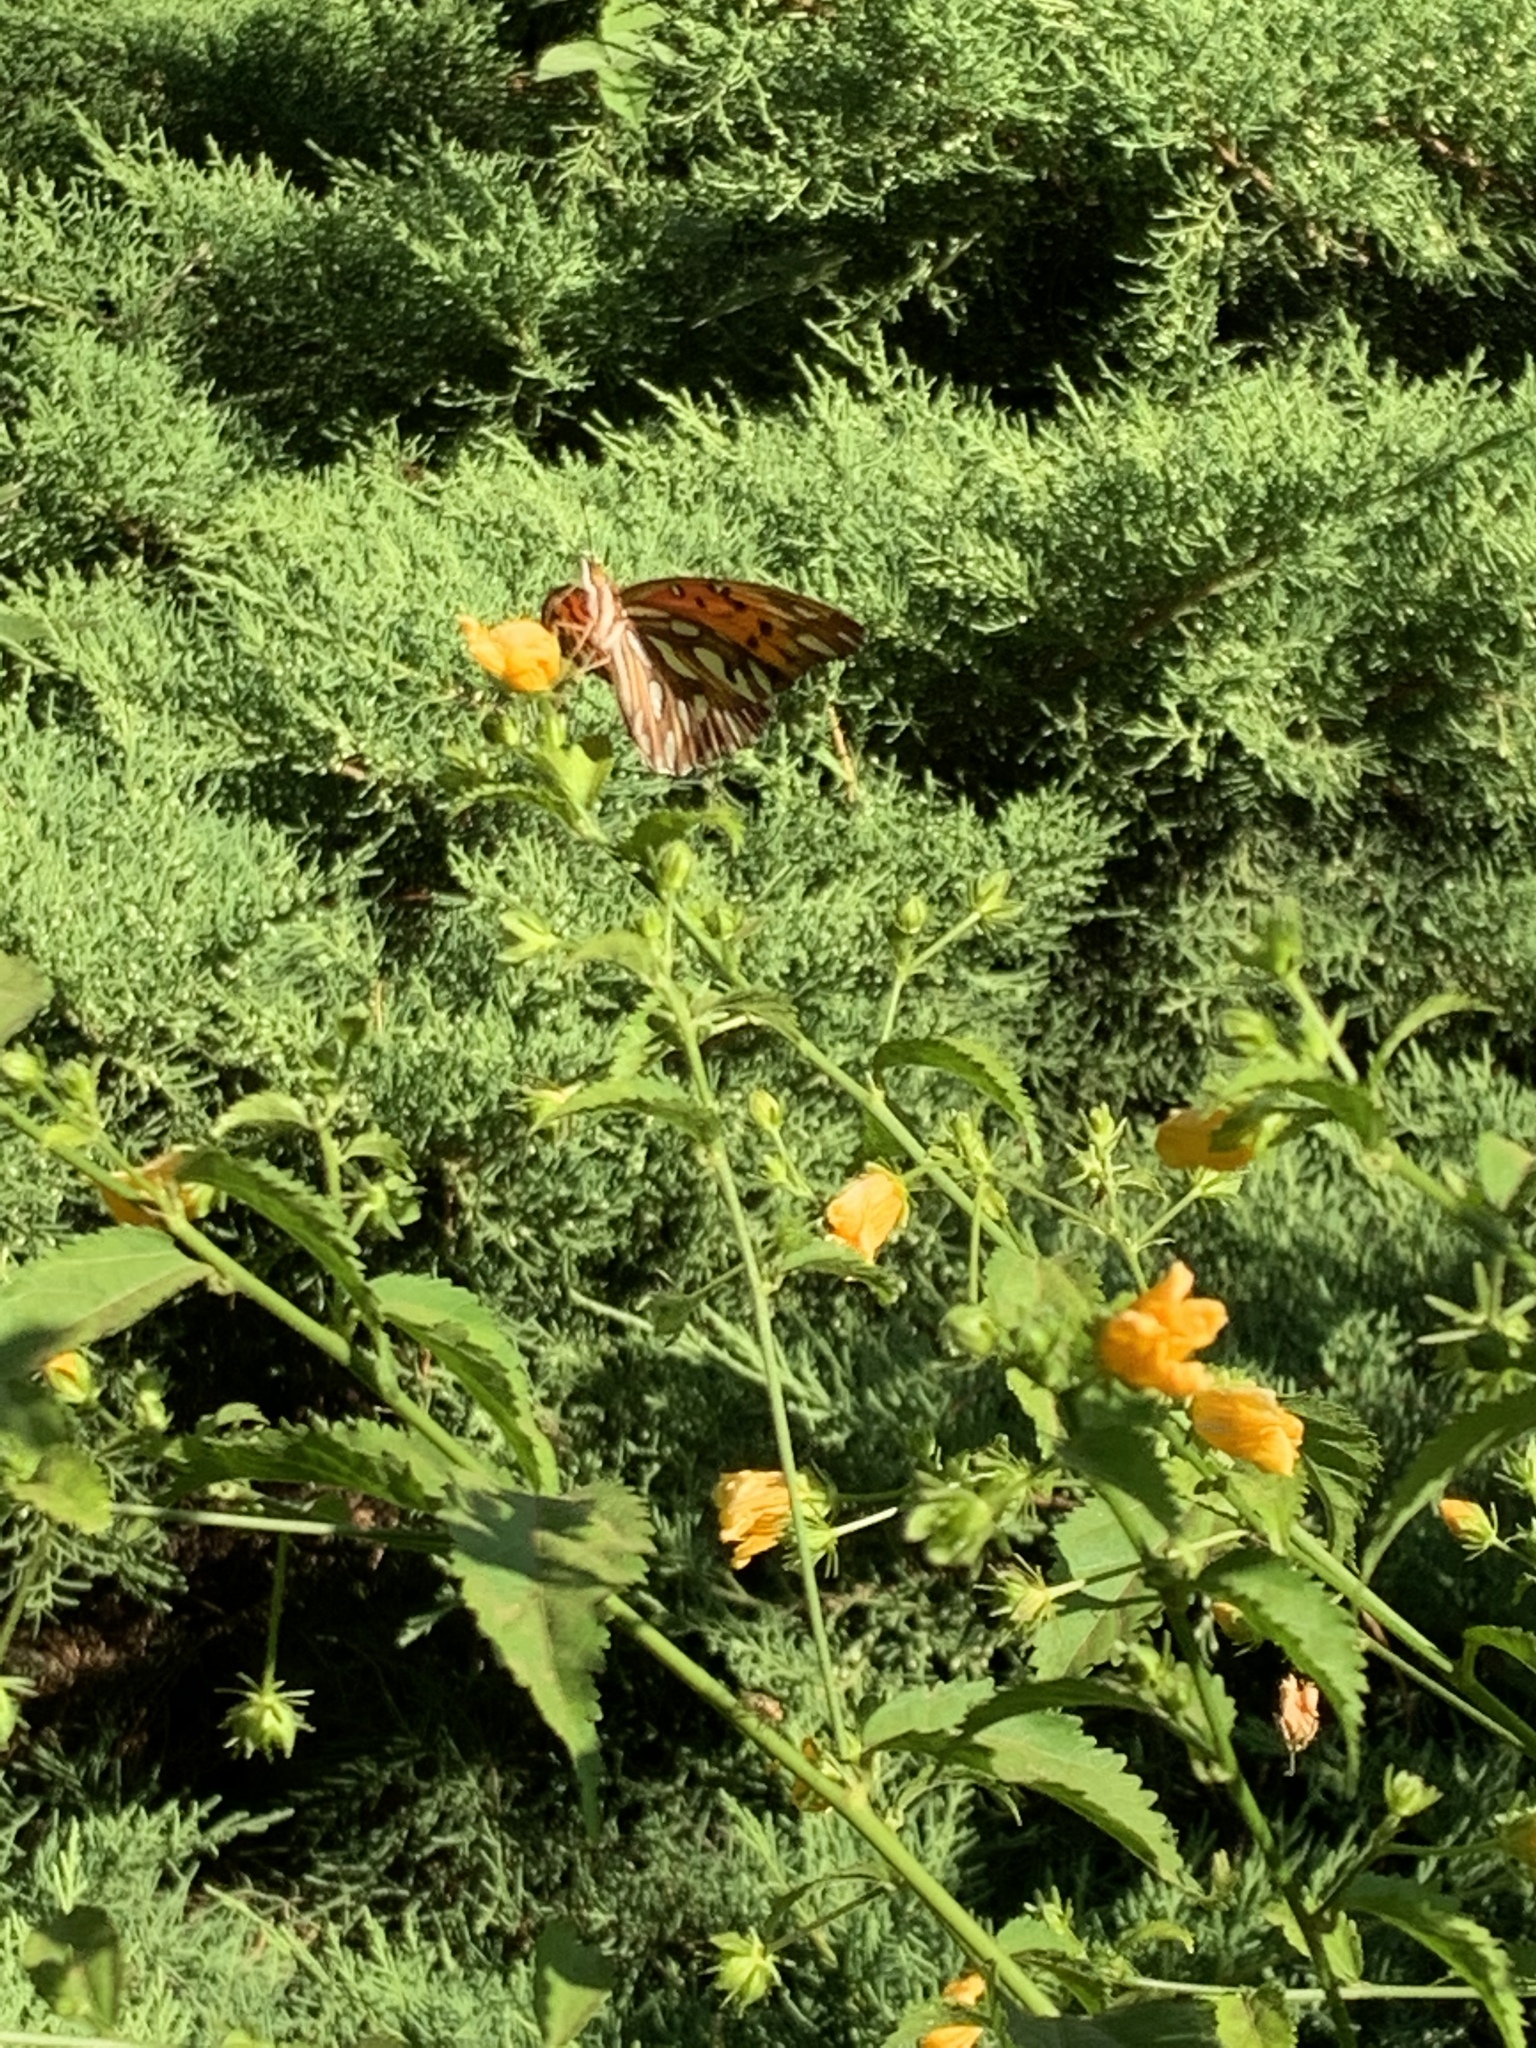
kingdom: Animalia
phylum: Arthropoda
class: Insecta
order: Lepidoptera
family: Nymphalidae
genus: Dione
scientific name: Dione vanillae
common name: Gulf fritillary
